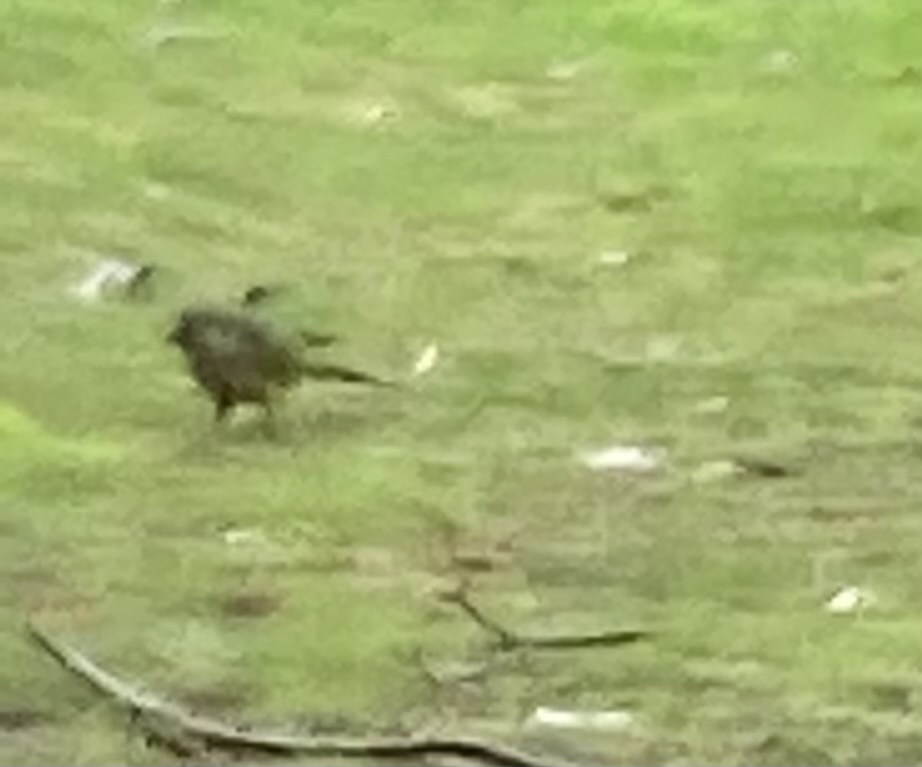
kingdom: Animalia
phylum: Chordata
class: Aves
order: Psittaciformes
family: Psittacidae
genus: Myiopsitta
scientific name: Myiopsitta monachus
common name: Monk parakeet
